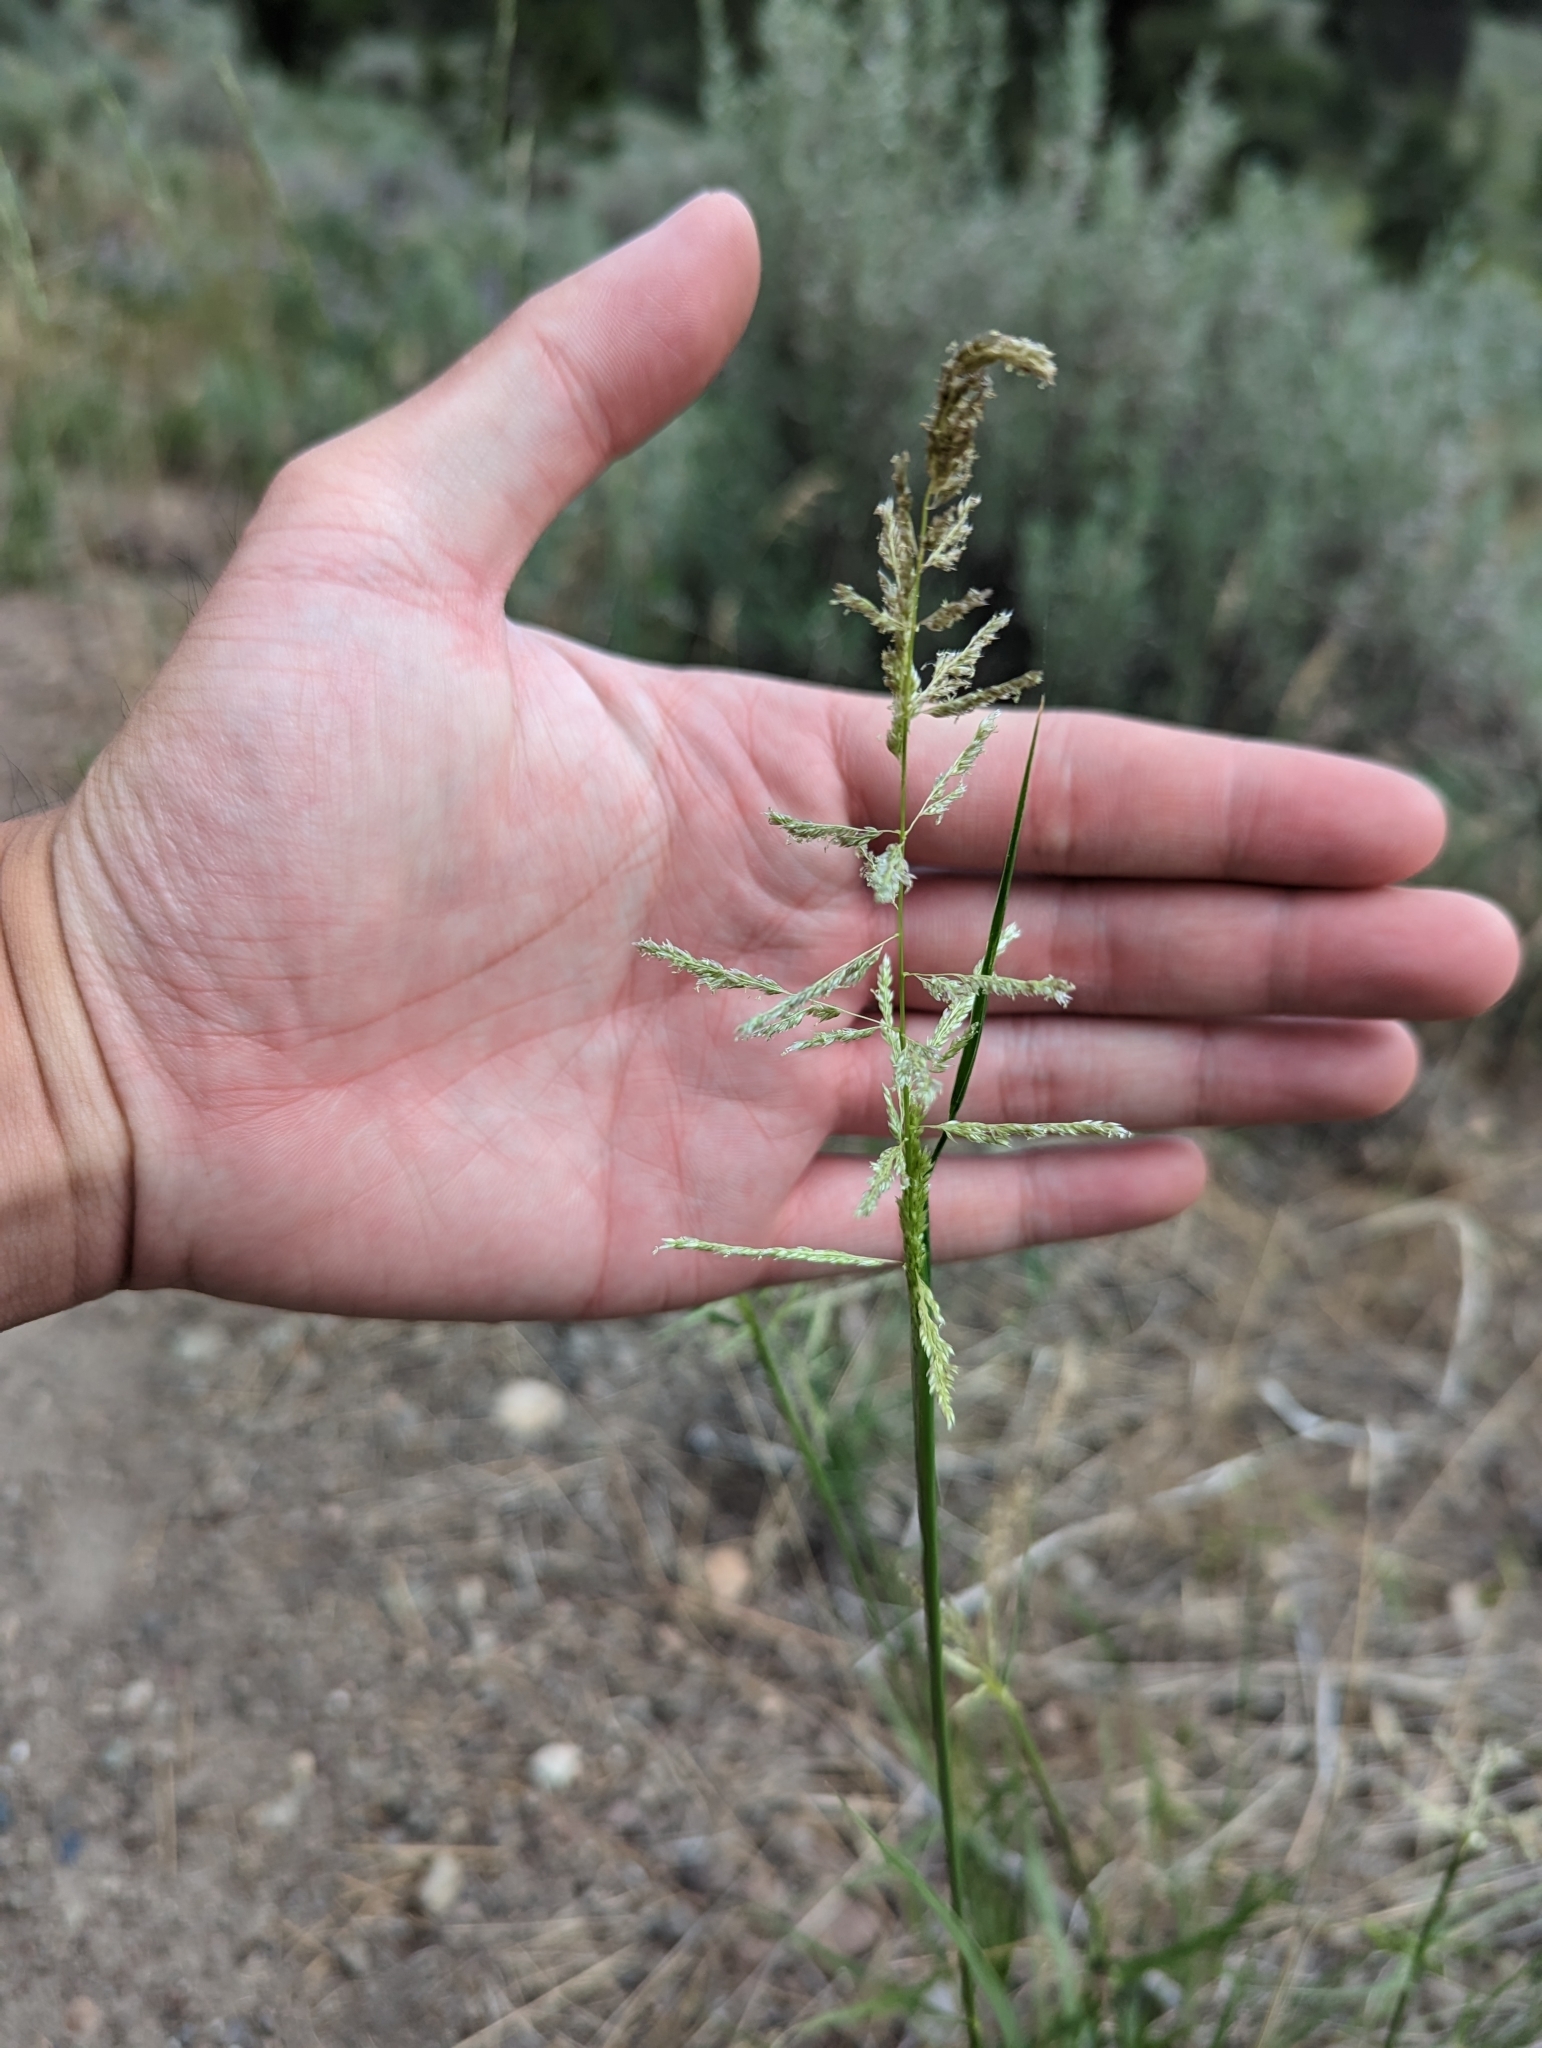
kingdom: Plantae
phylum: Tracheophyta
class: Liliopsida
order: Poales
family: Poaceae
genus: Sporobolus
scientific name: Sporobolus cryptandrus
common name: Sand dropseed
